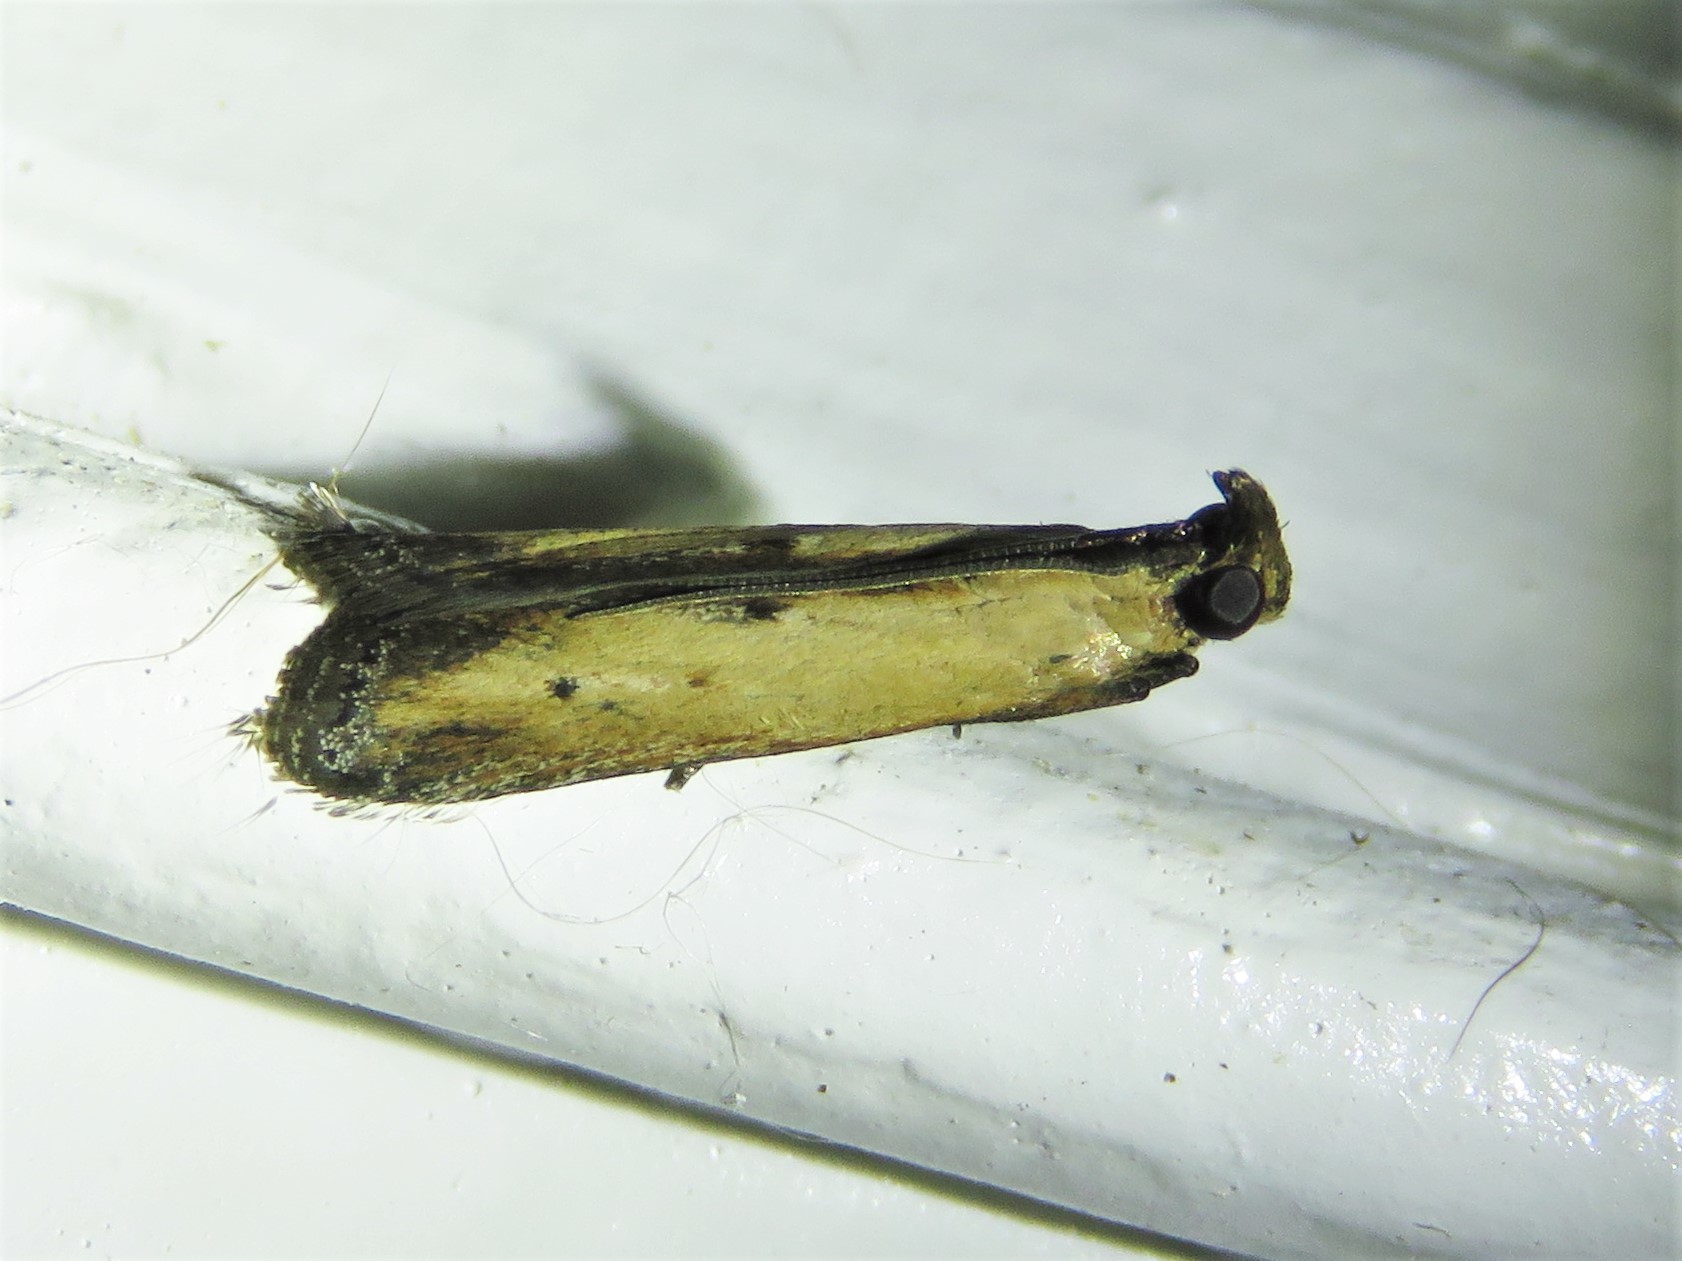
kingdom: Animalia
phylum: Arthropoda
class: Insecta
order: Lepidoptera
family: Pyralidae
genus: Elasmopalpus
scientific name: Elasmopalpus lignosella
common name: Lesser cornstalk borer
